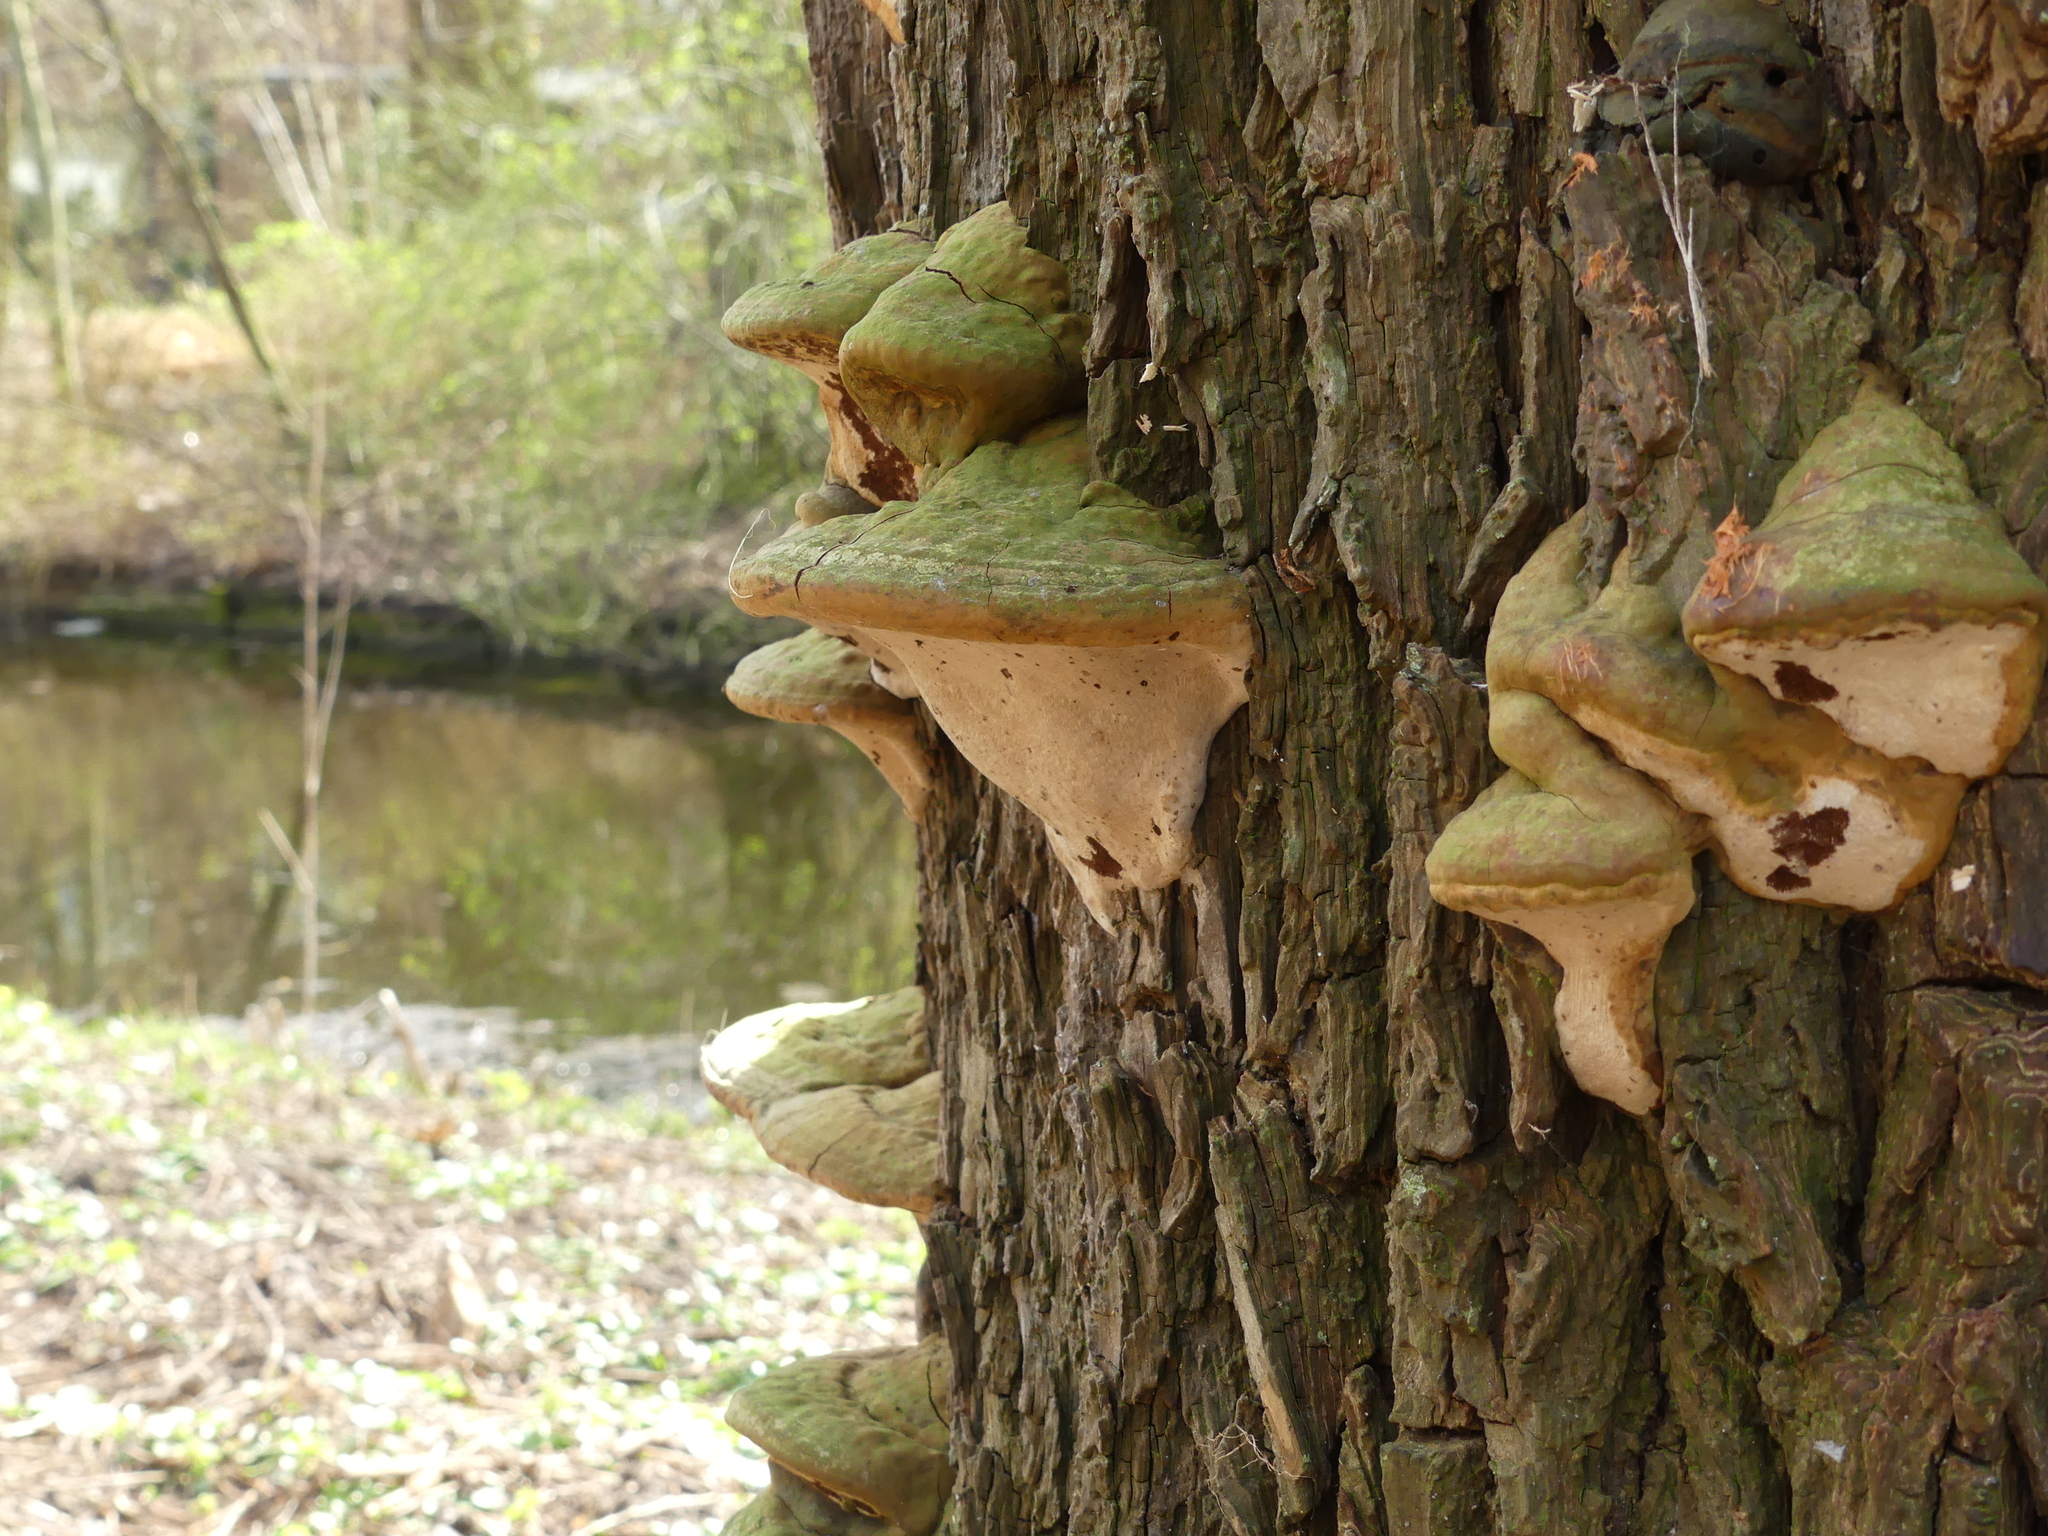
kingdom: Fungi
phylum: Basidiomycota
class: Agaricomycetes
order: Polyporales
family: Polyporaceae
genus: Fomes
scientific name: Fomes fomentarius
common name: Hoof fungus
